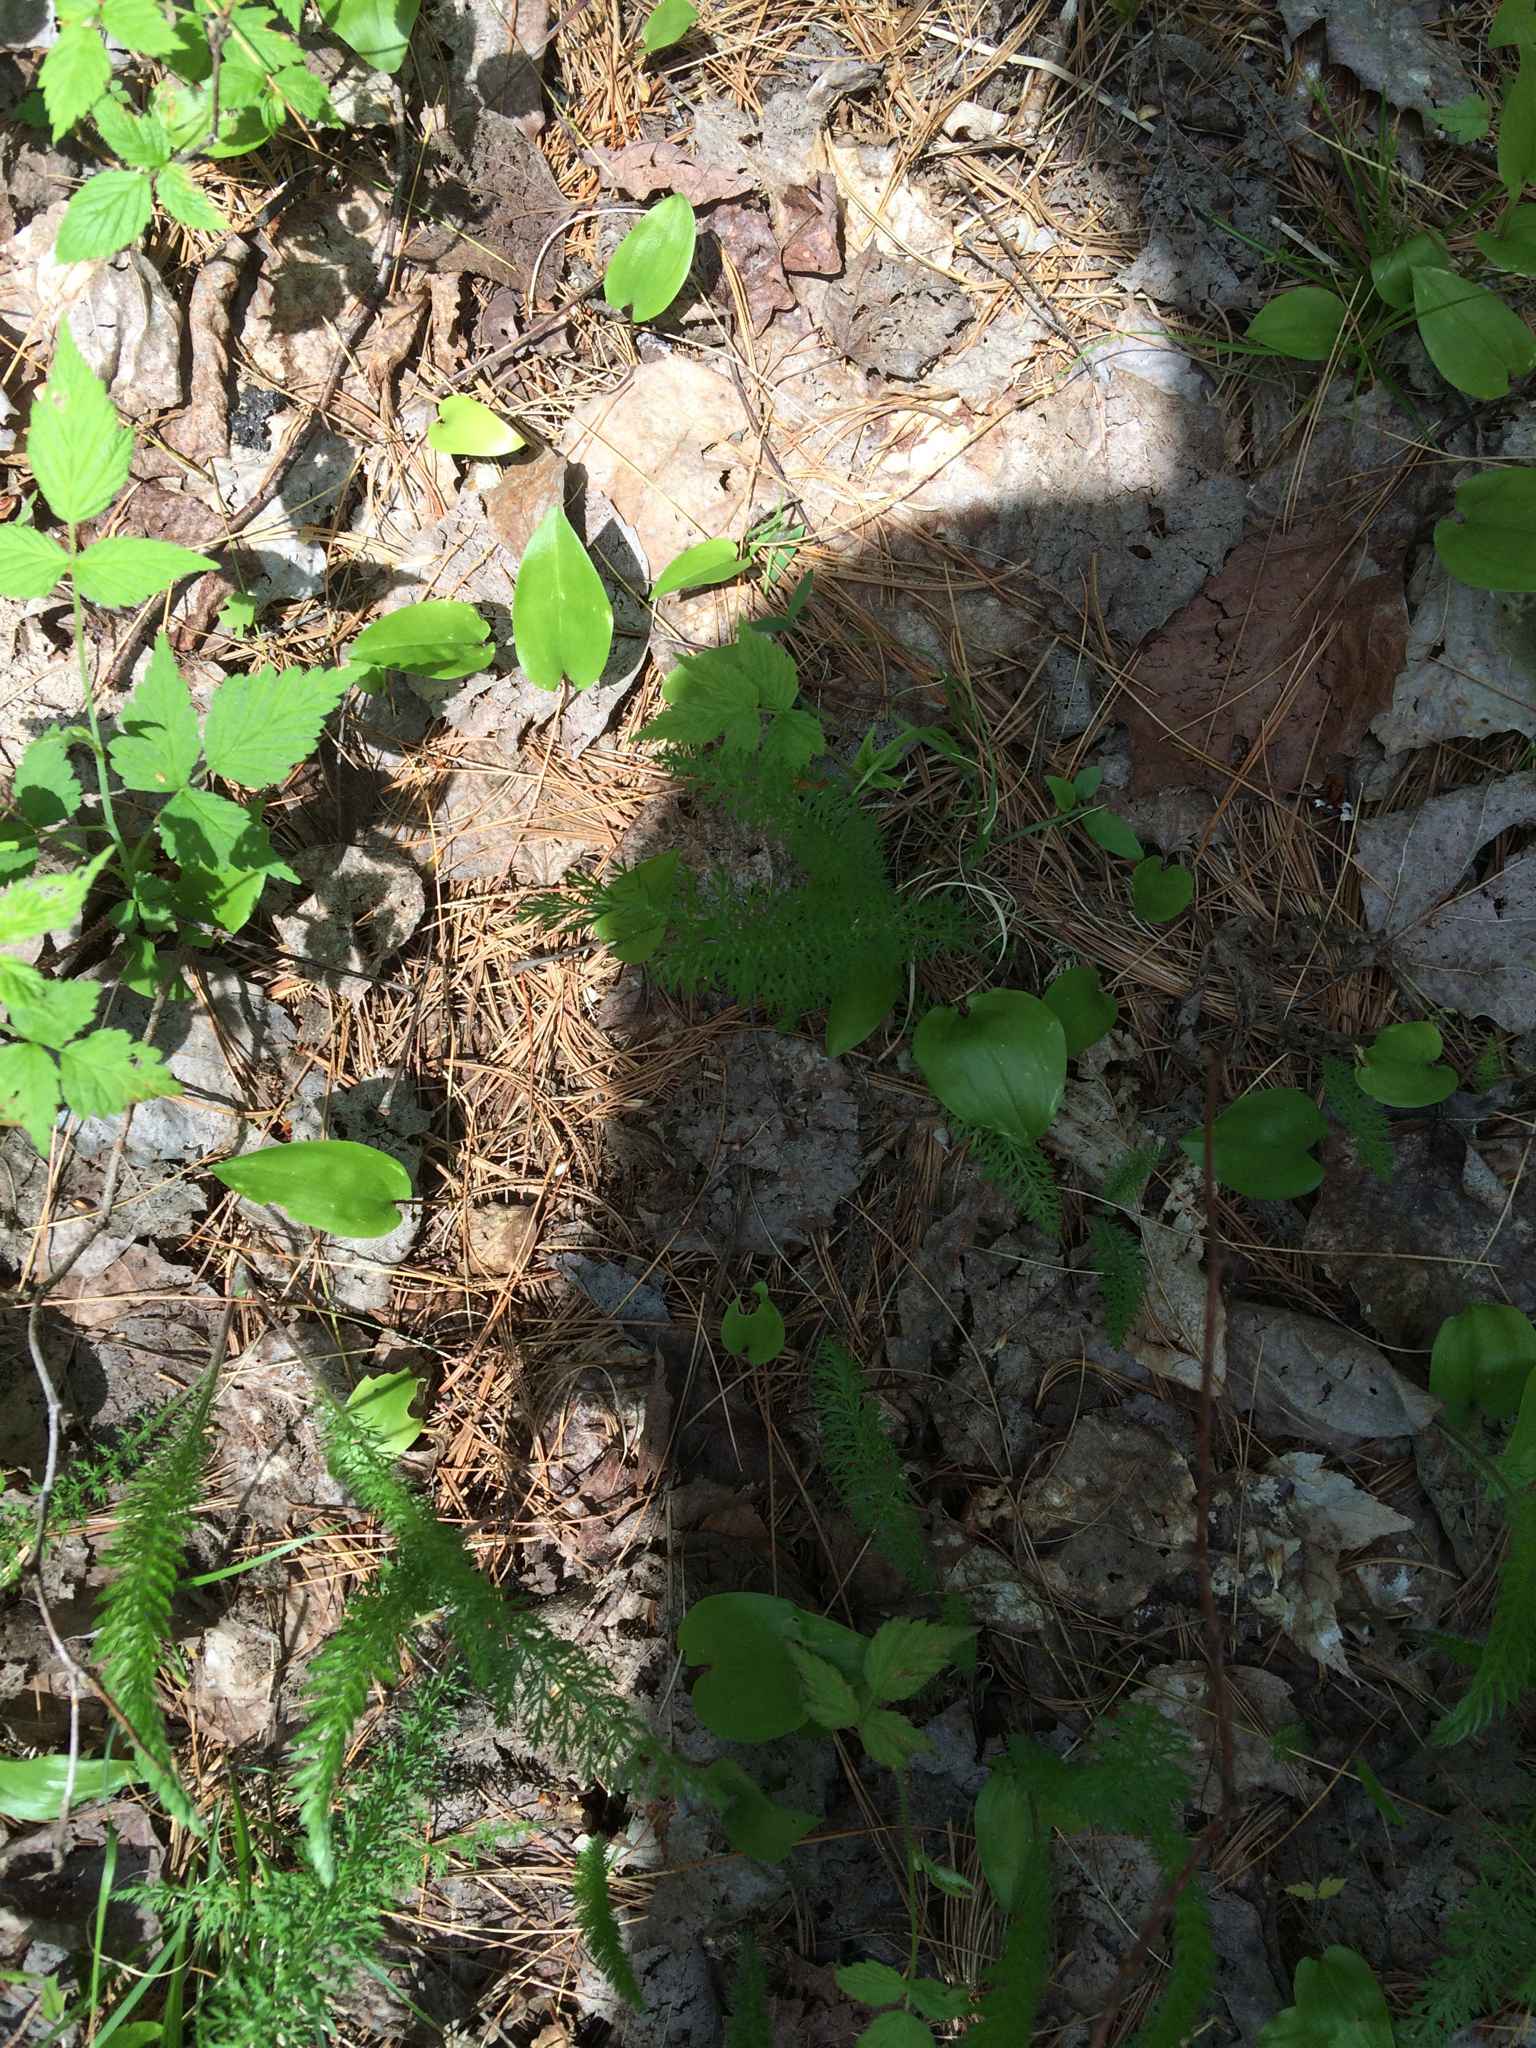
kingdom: Plantae
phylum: Tracheophyta
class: Magnoliopsida
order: Asterales
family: Asteraceae
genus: Achillea
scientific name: Achillea millefolium
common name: Yarrow
